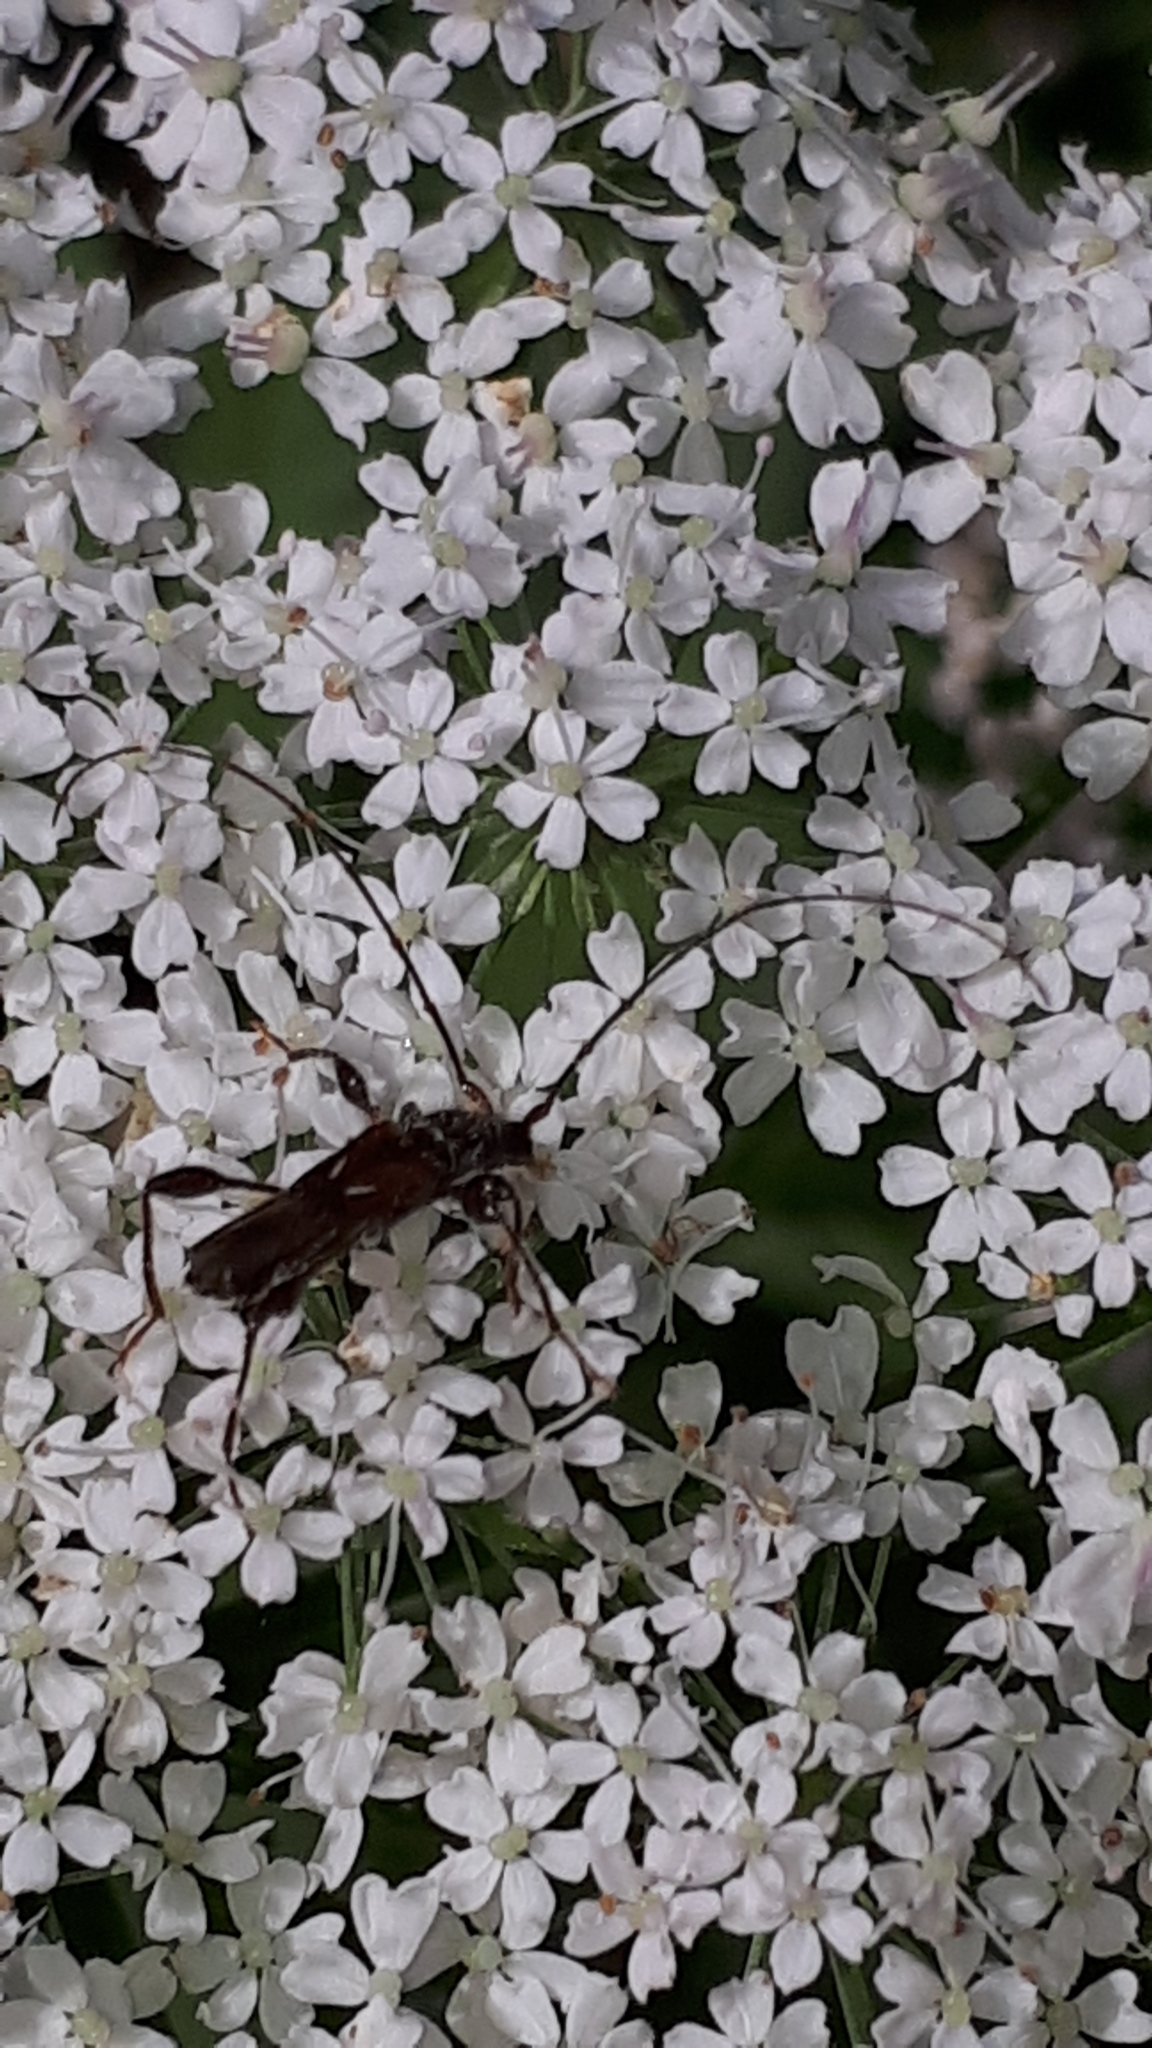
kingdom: Animalia
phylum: Arthropoda
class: Insecta
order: Coleoptera
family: Cerambycidae
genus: Molorchus
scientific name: Molorchus minor
